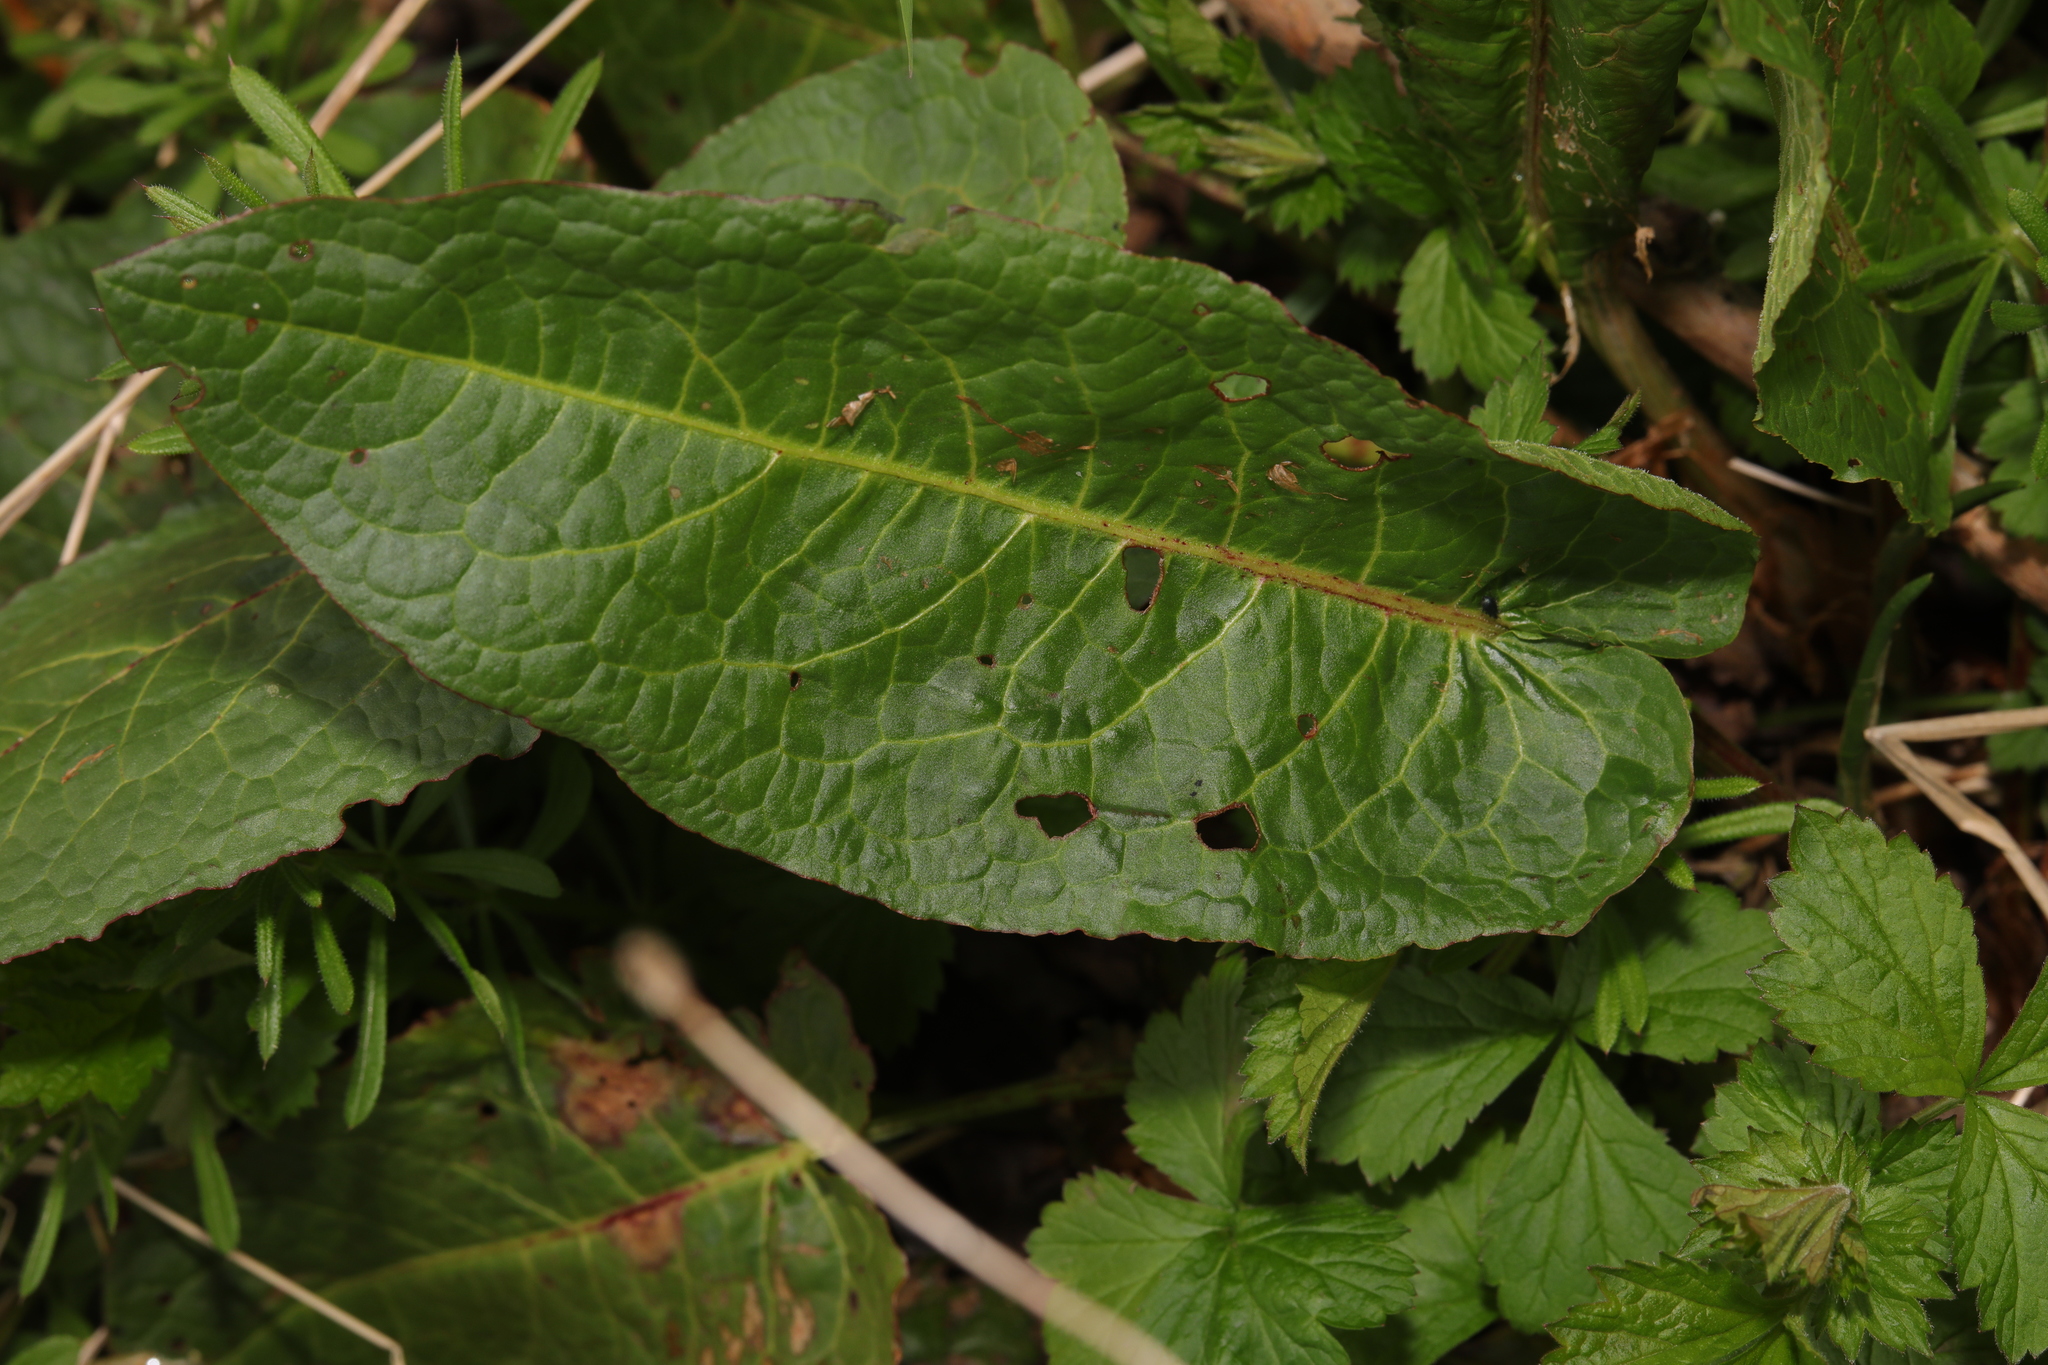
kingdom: Plantae
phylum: Tracheophyta
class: Magnoliopsida
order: Caryophyllales
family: Polygonaceae
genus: Rumex
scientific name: Rumex obtusifolius
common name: Bitter dock
